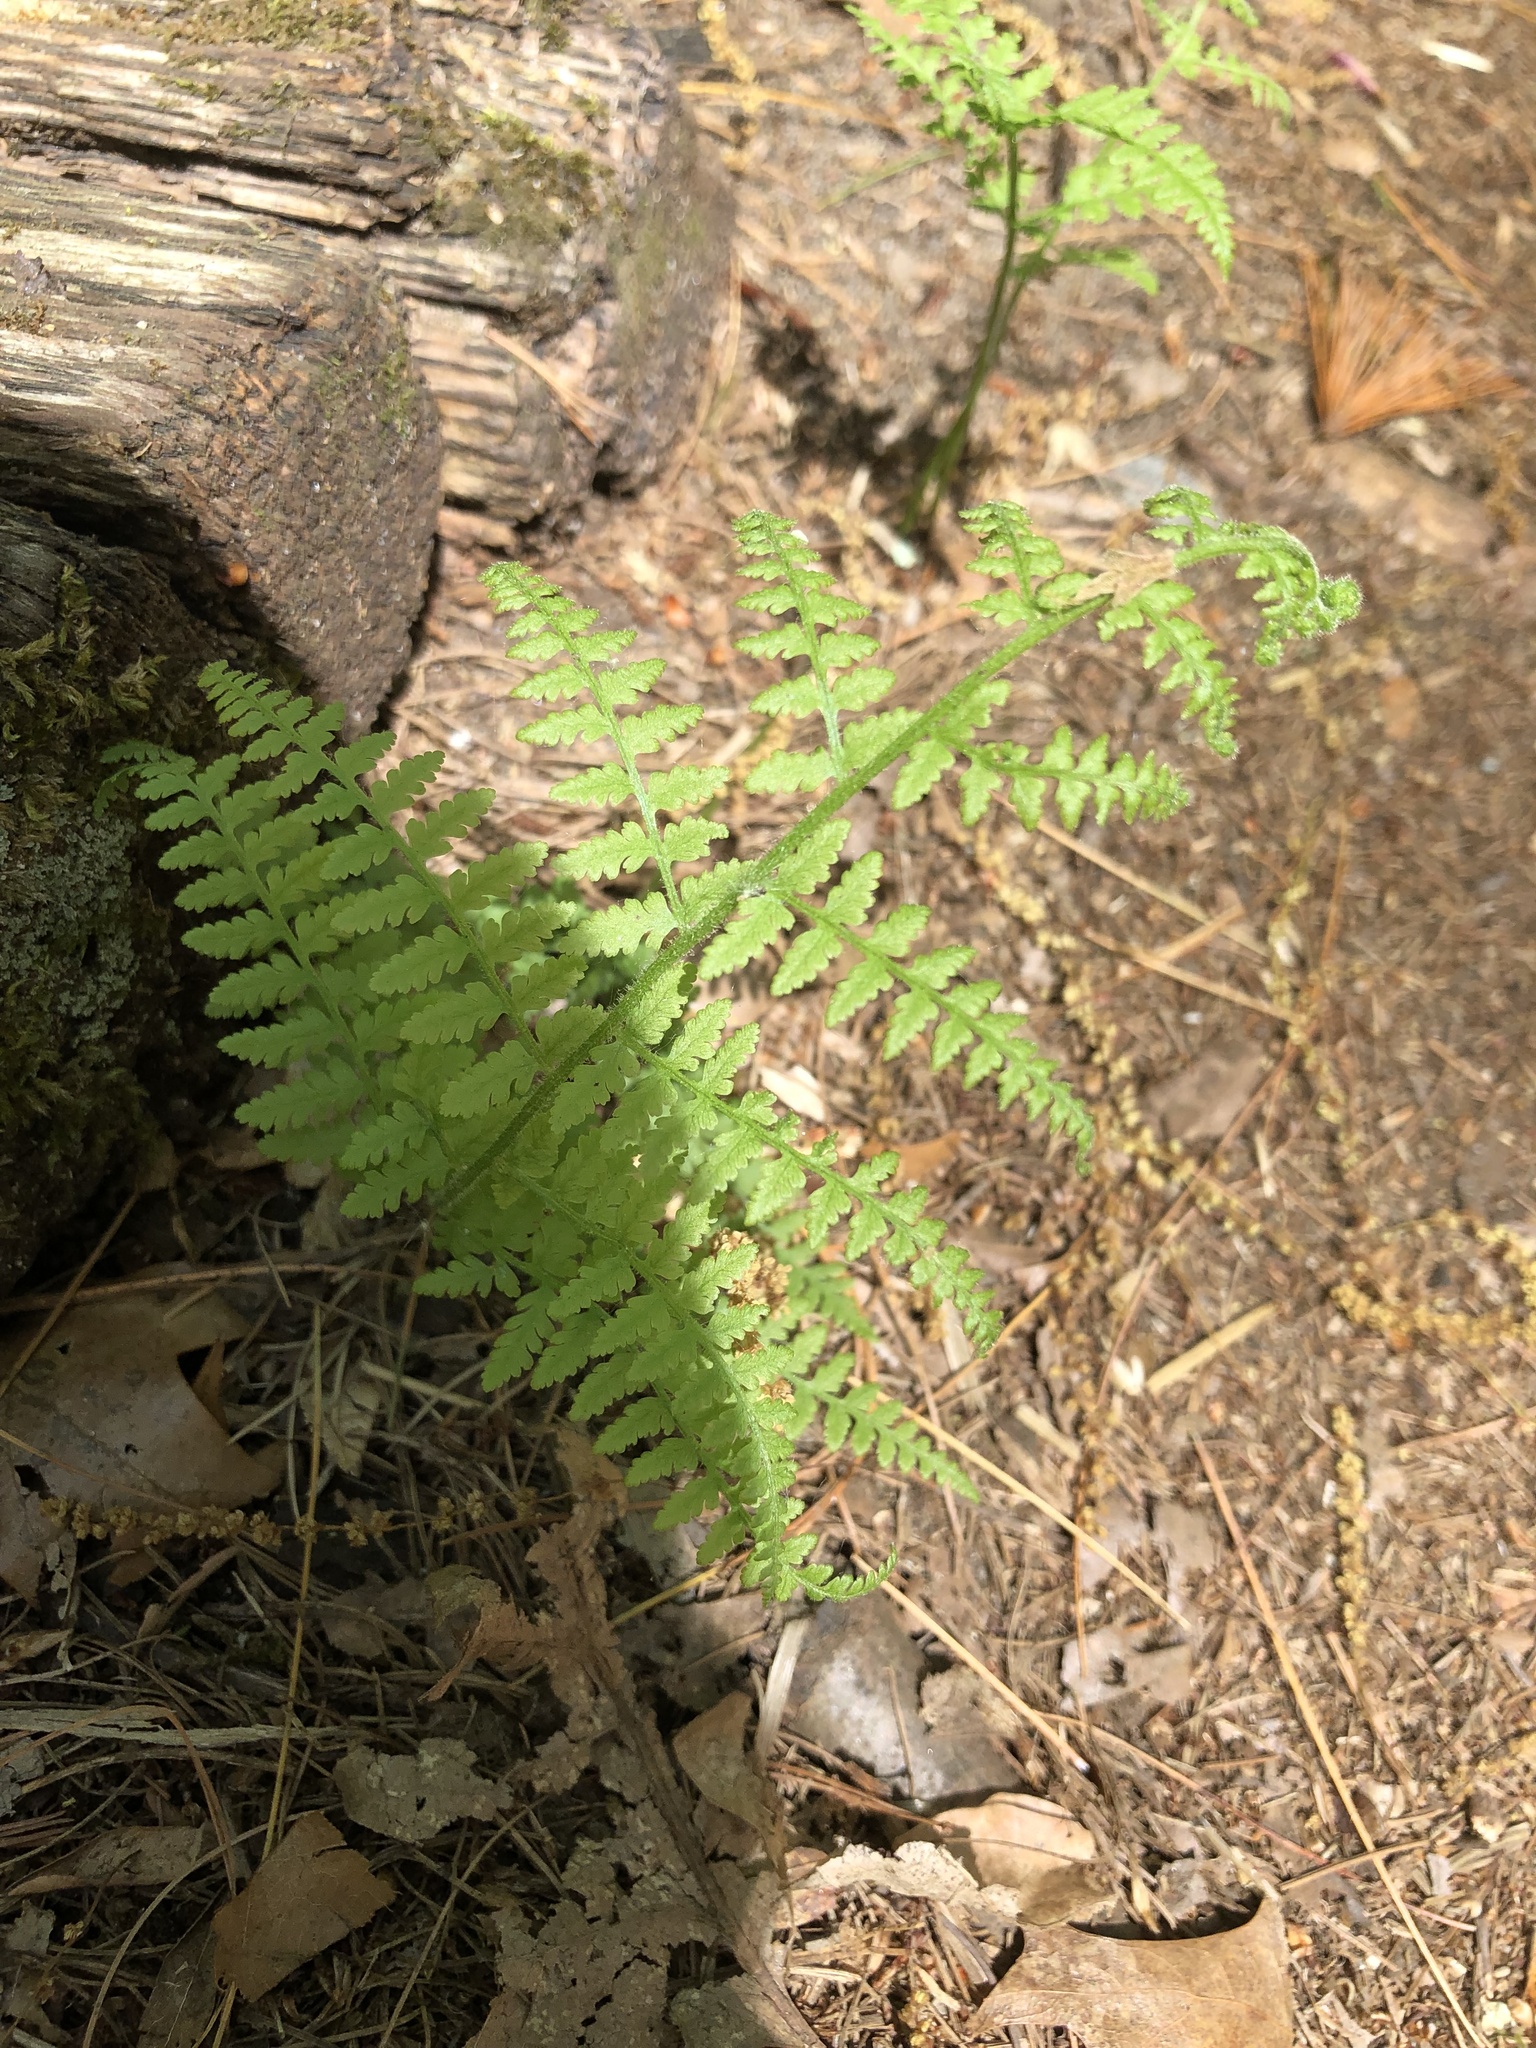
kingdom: Plantae
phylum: Tracheophyta
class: Polypodiopsida
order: Polypodiales
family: Dennstaedtiaceae
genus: Sitobolium
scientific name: Sitobolium punctilobum
